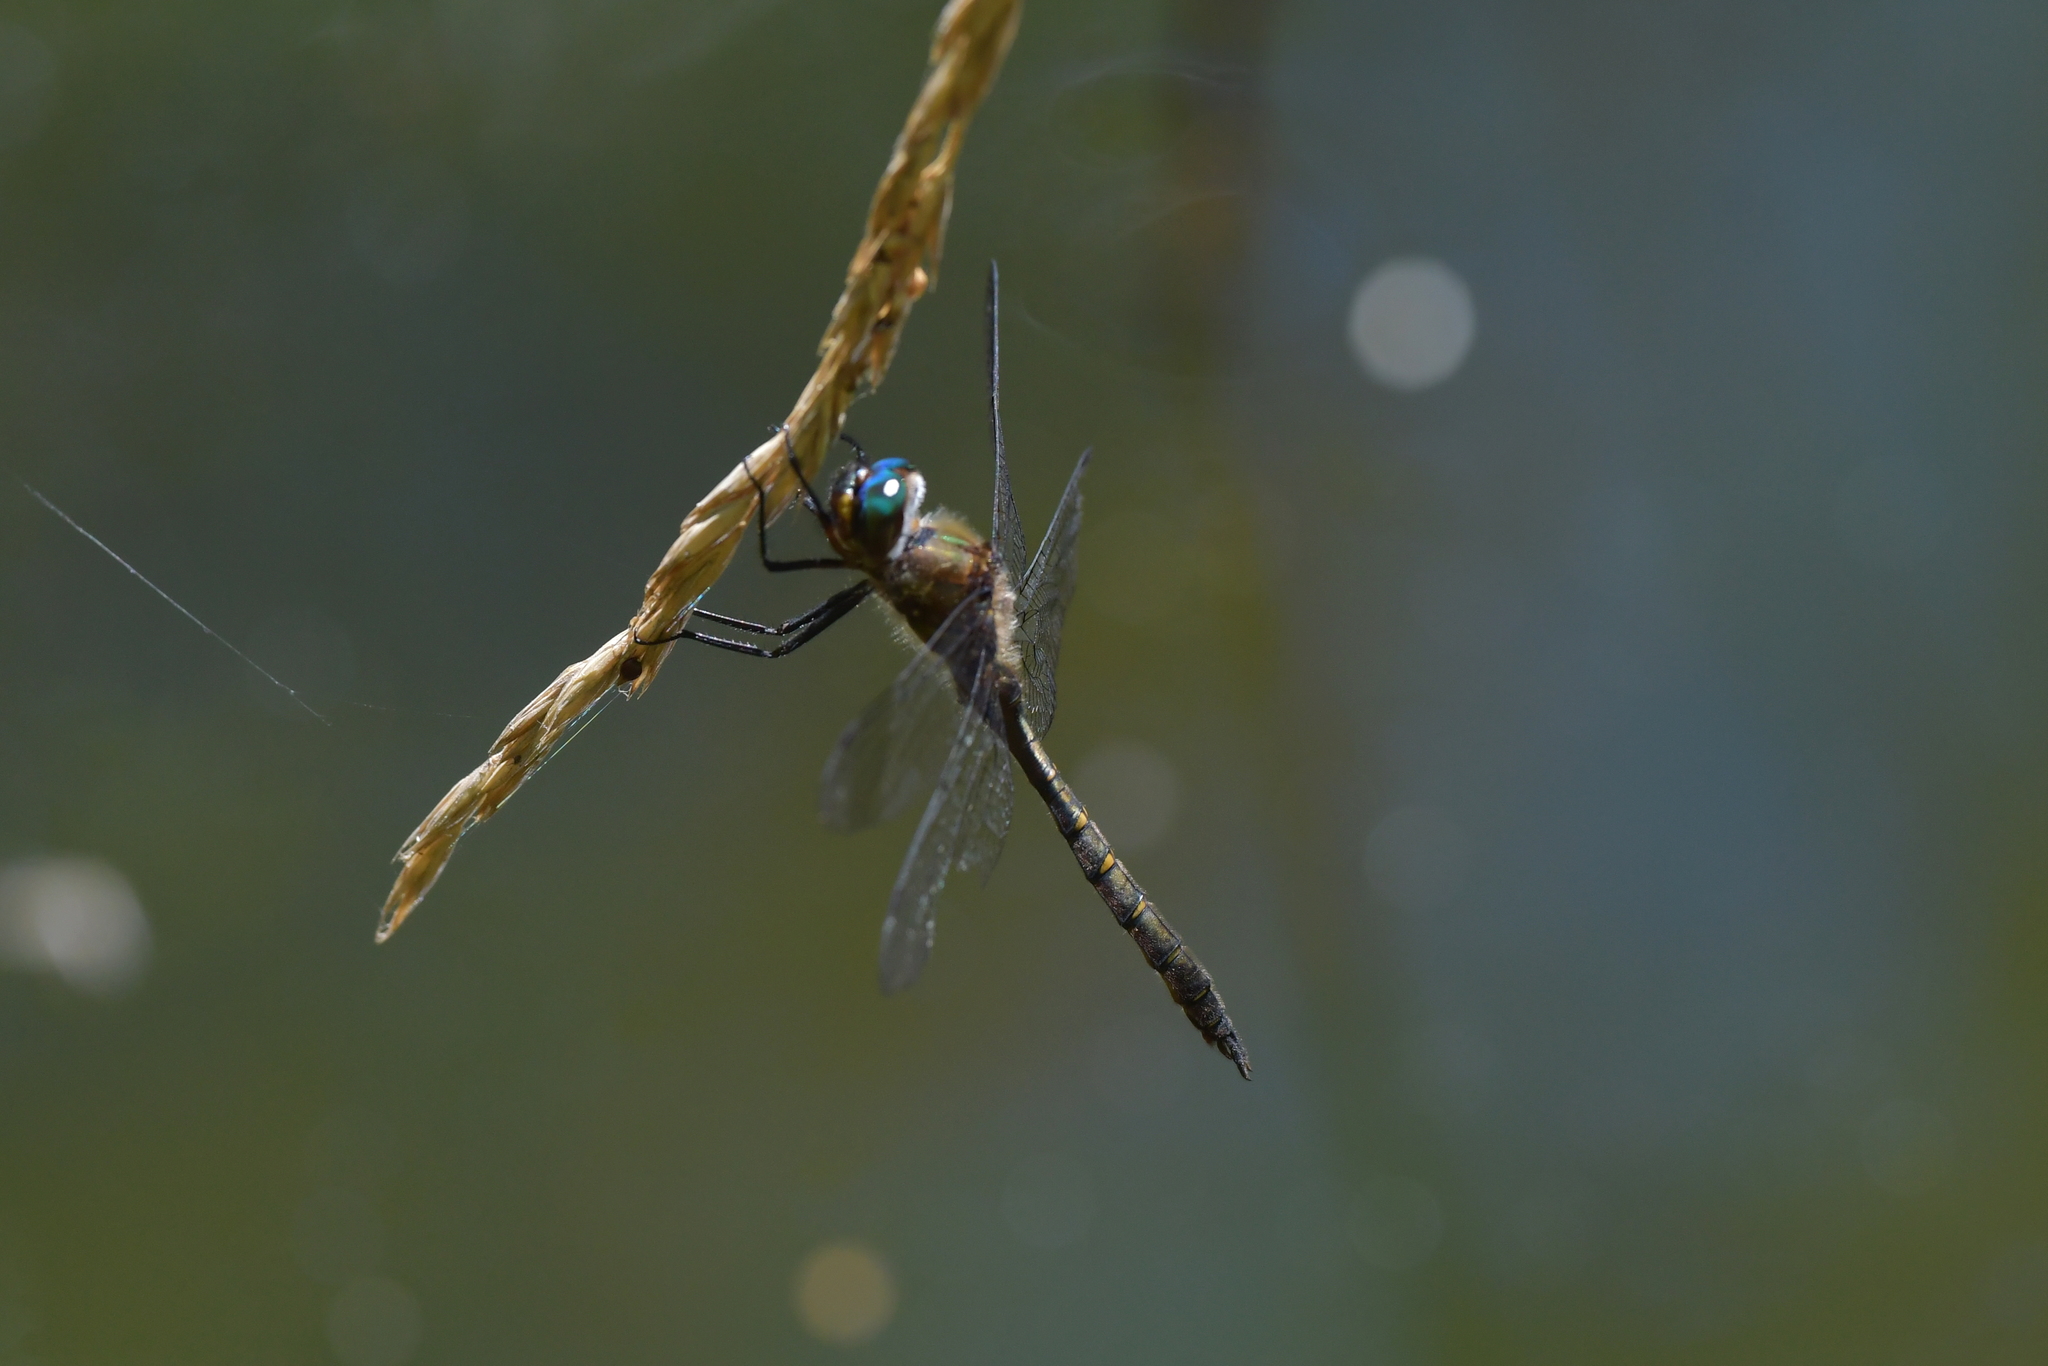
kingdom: Animalia
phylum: Arthropoda
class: Insecta
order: Odonata
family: Corduliidae
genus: Procordulia
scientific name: Procordulia smithii
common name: Ranger dragonfly
